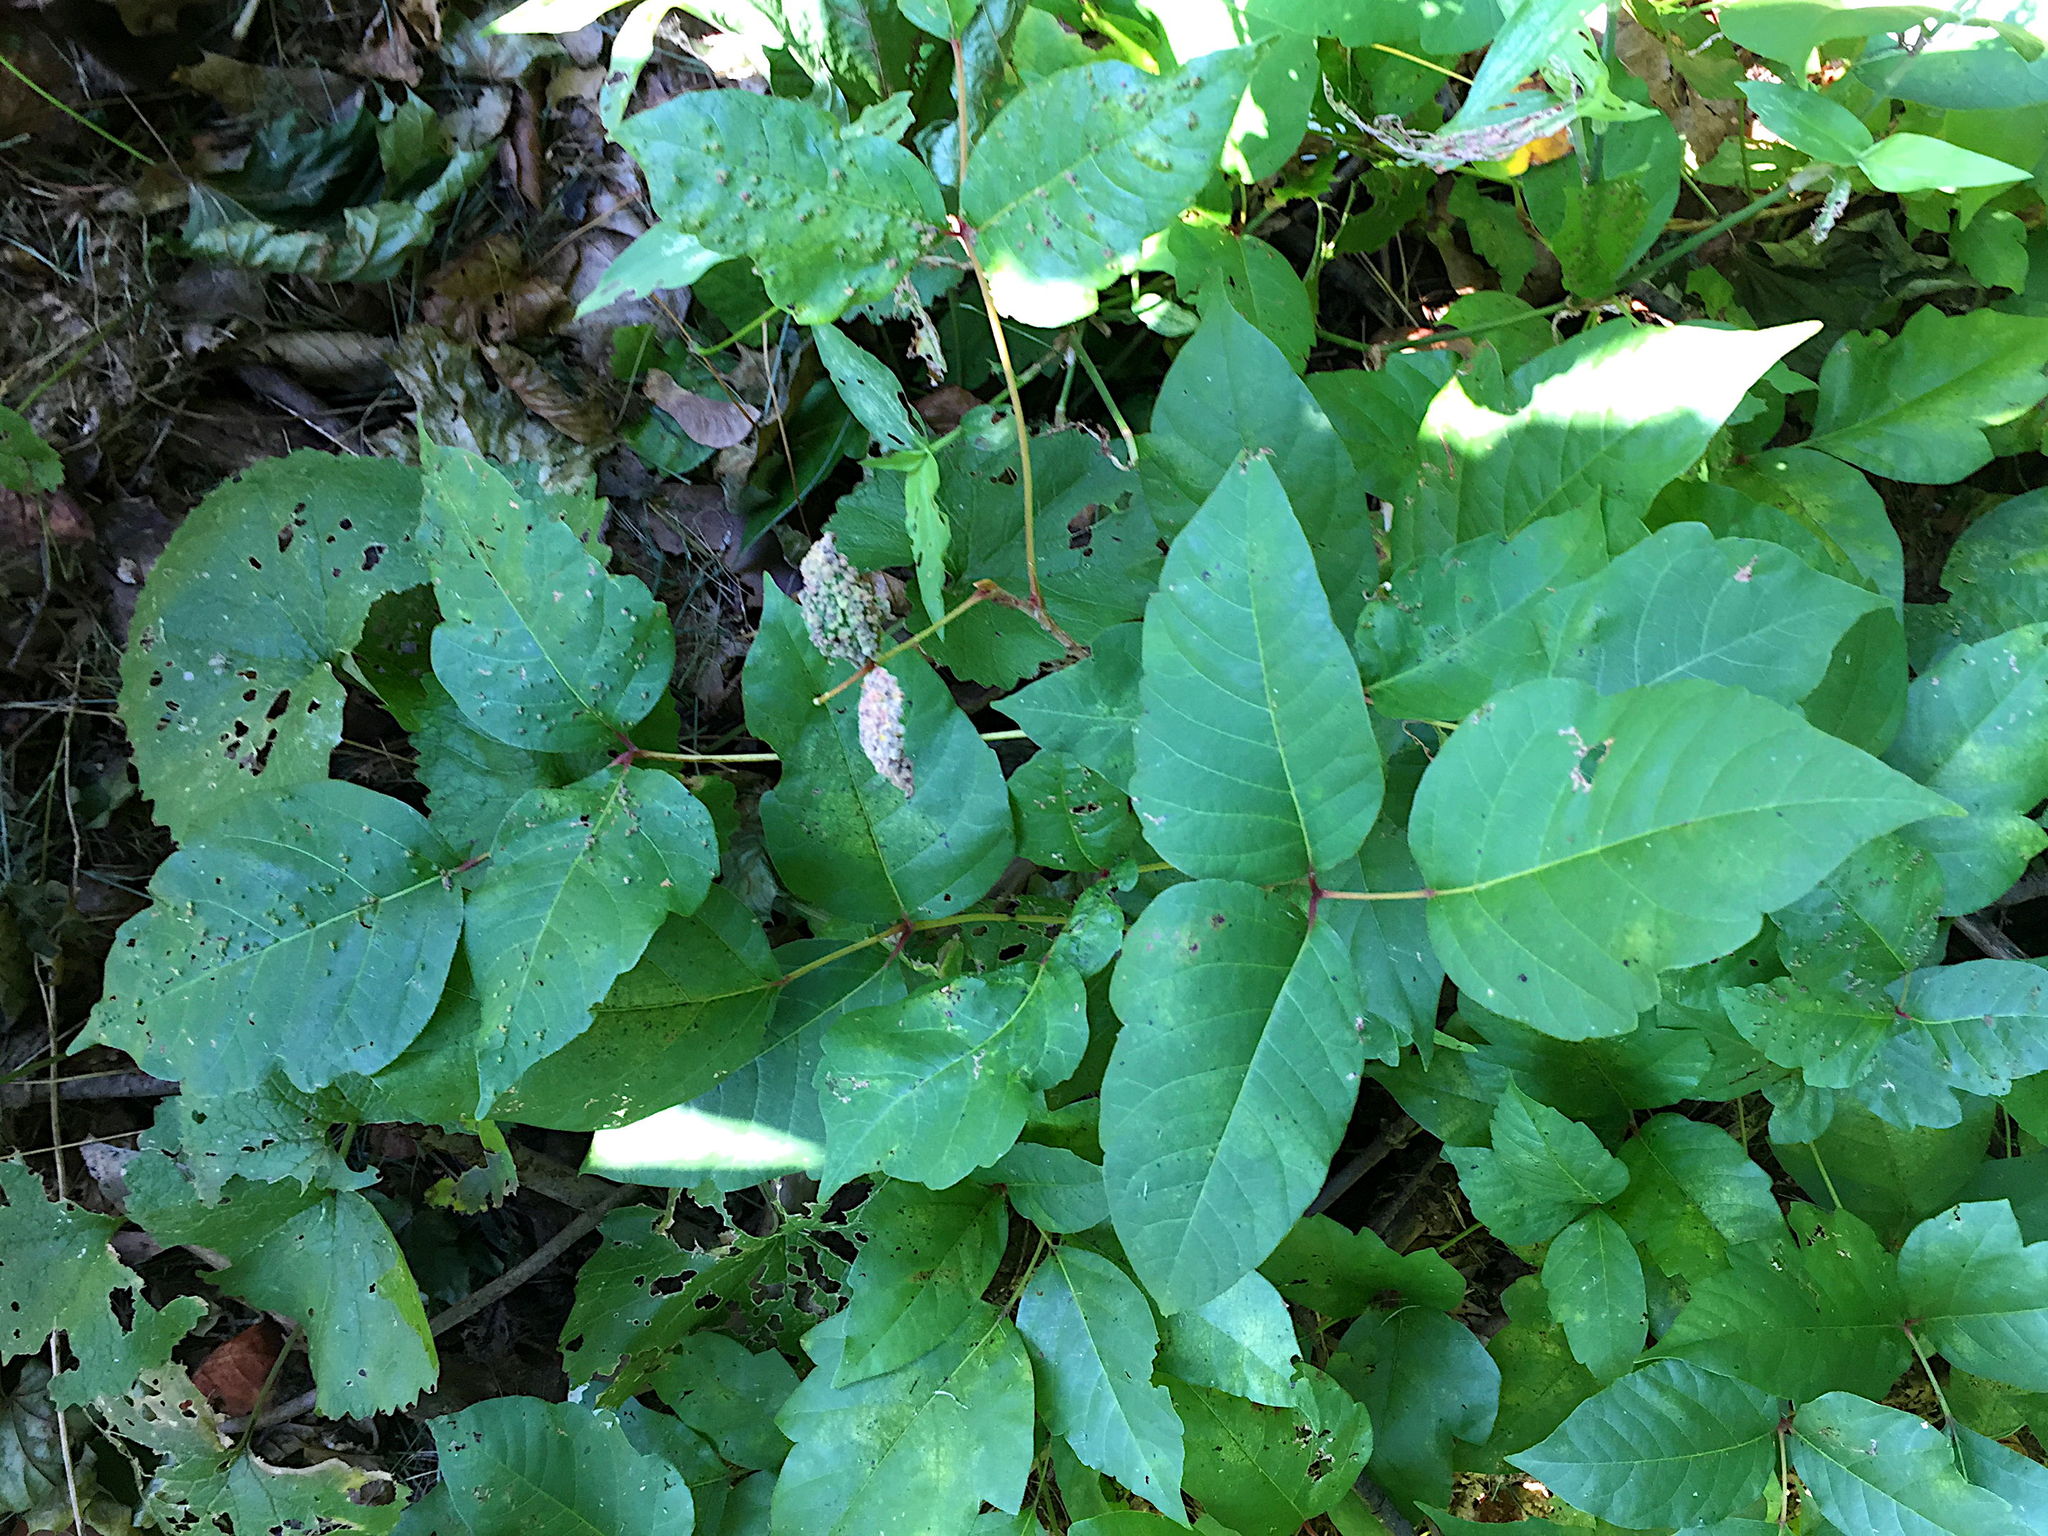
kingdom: Plantae
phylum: Tracheophyta
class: Magnoliopsida
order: Sapindales
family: Anacardiaceae
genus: Toxicodendron
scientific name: Toxicodendron radicans
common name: Poison ivy
